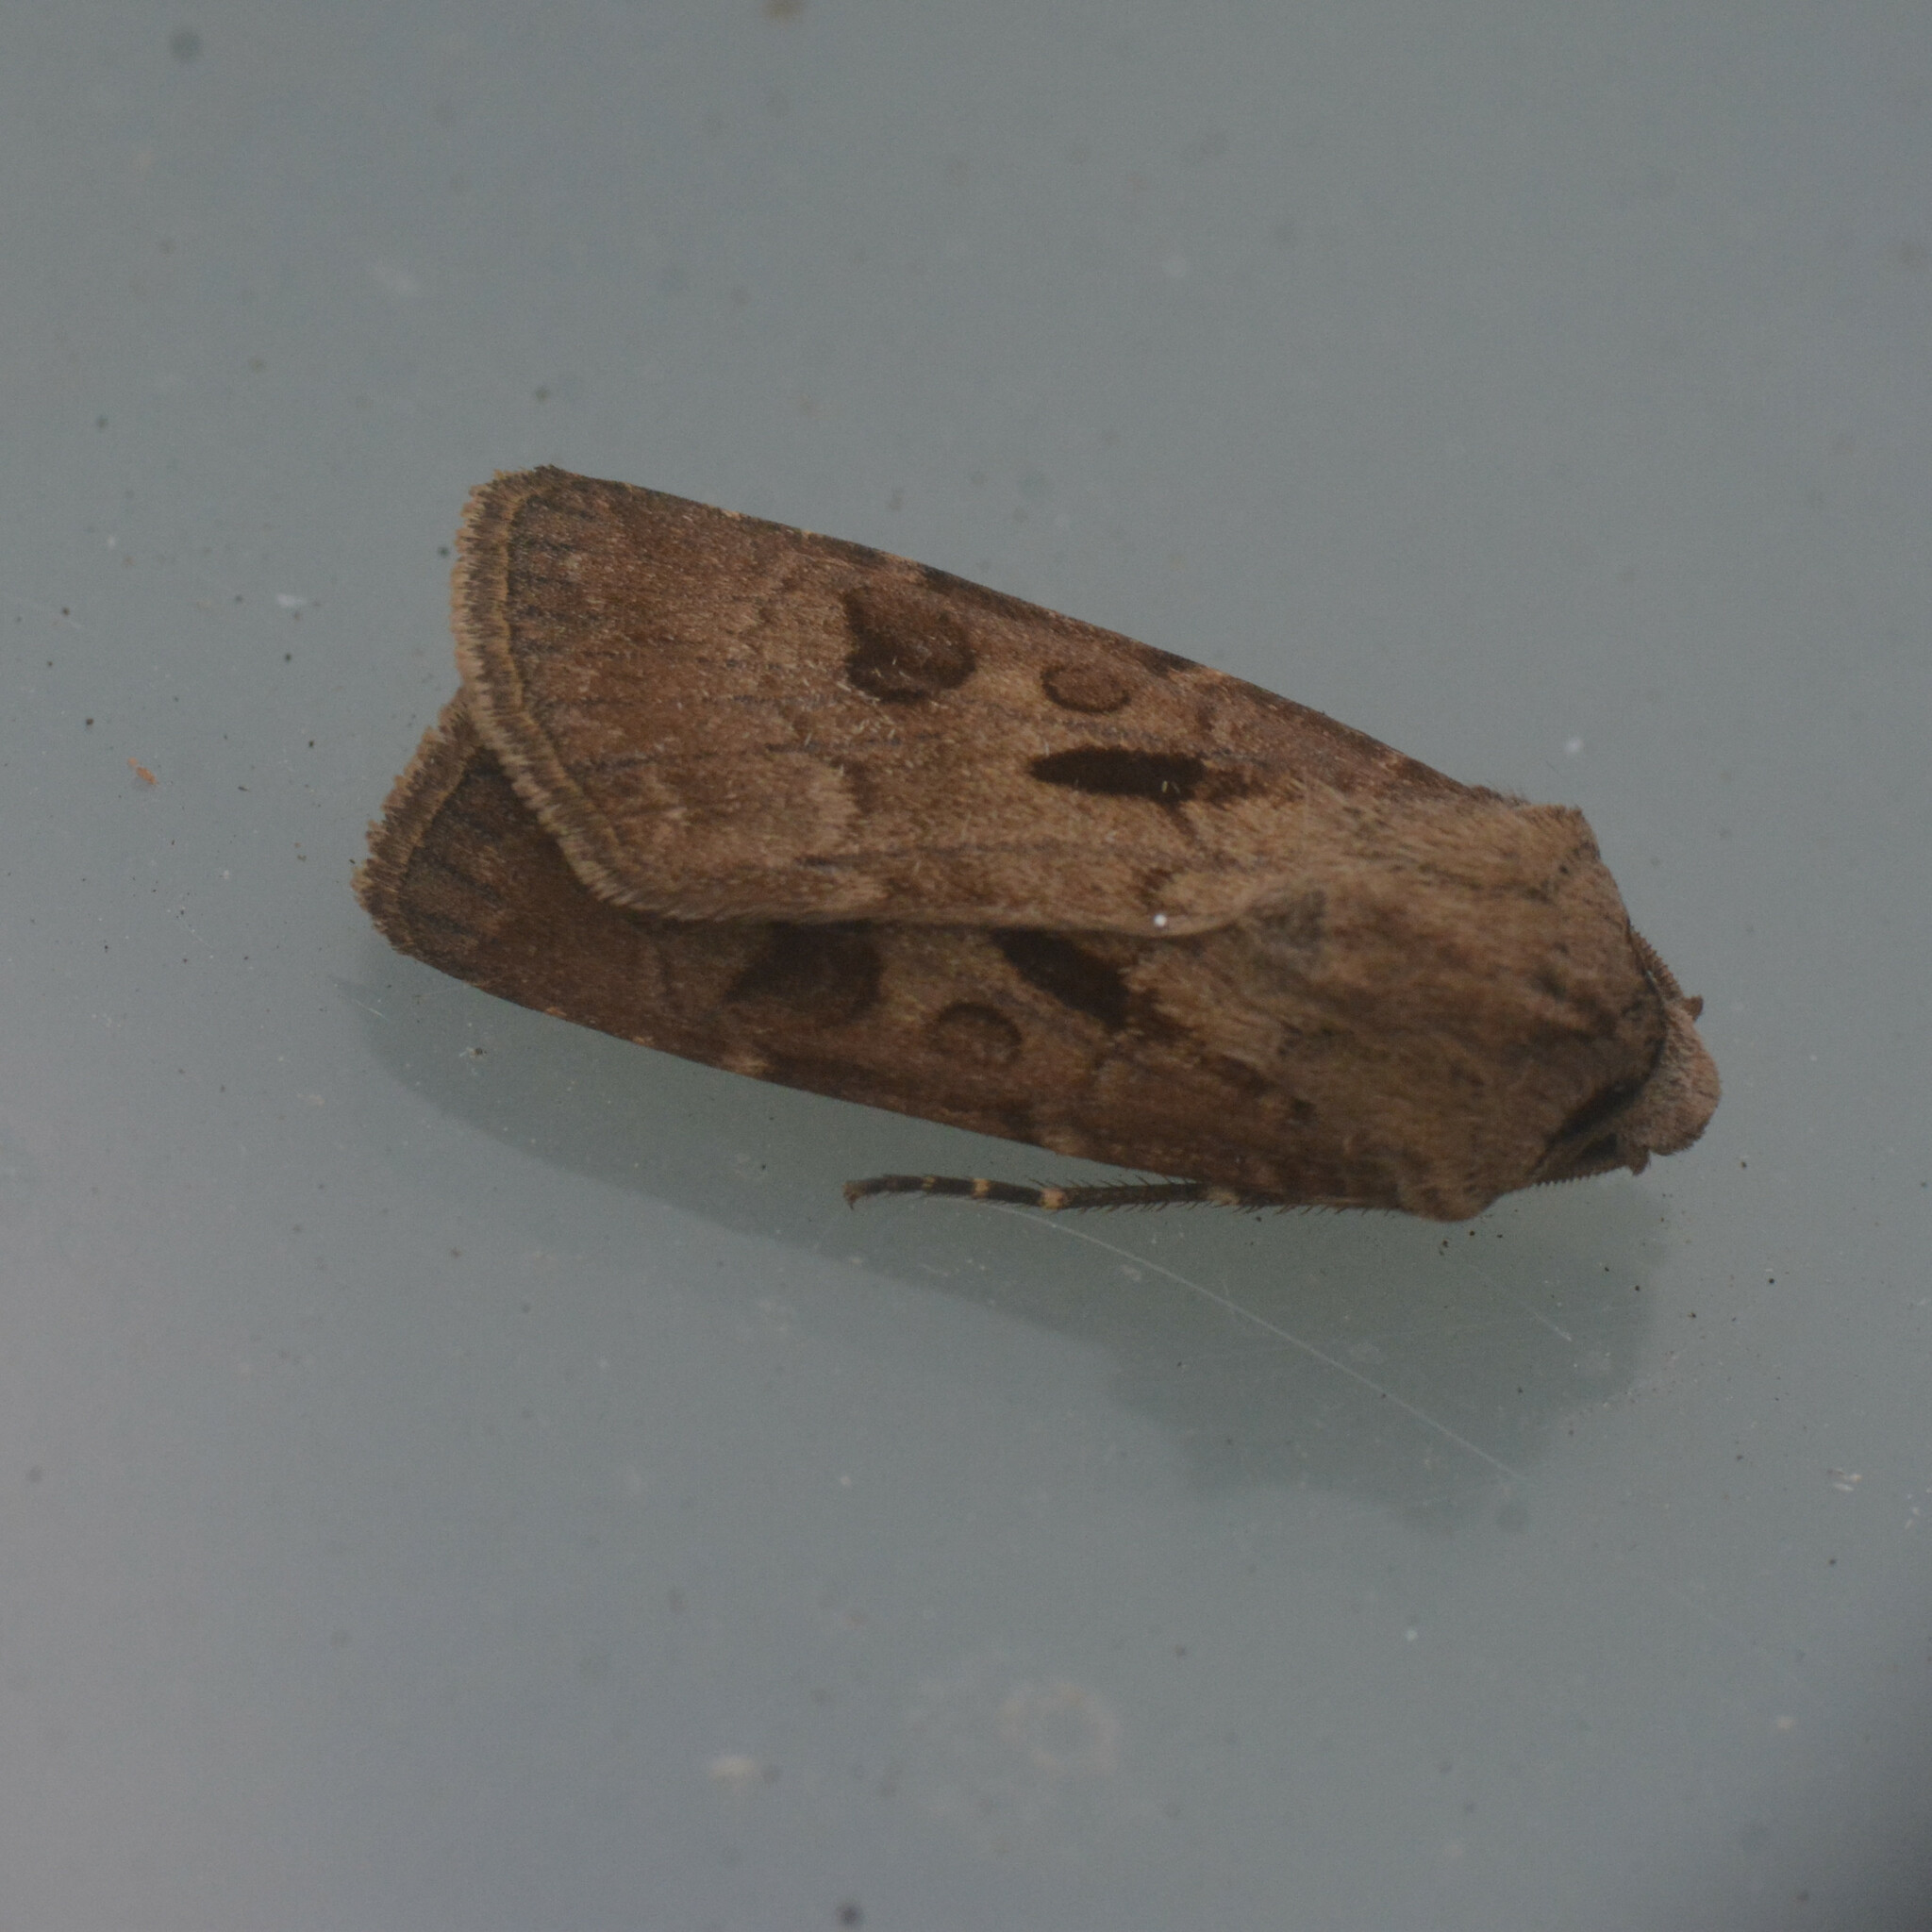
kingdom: Animalia
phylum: Arthropoda
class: Insecta
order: Lepidoptera
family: Noctuidae
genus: Agrotis
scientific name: Agrotis exclamationis
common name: Heart and dart
